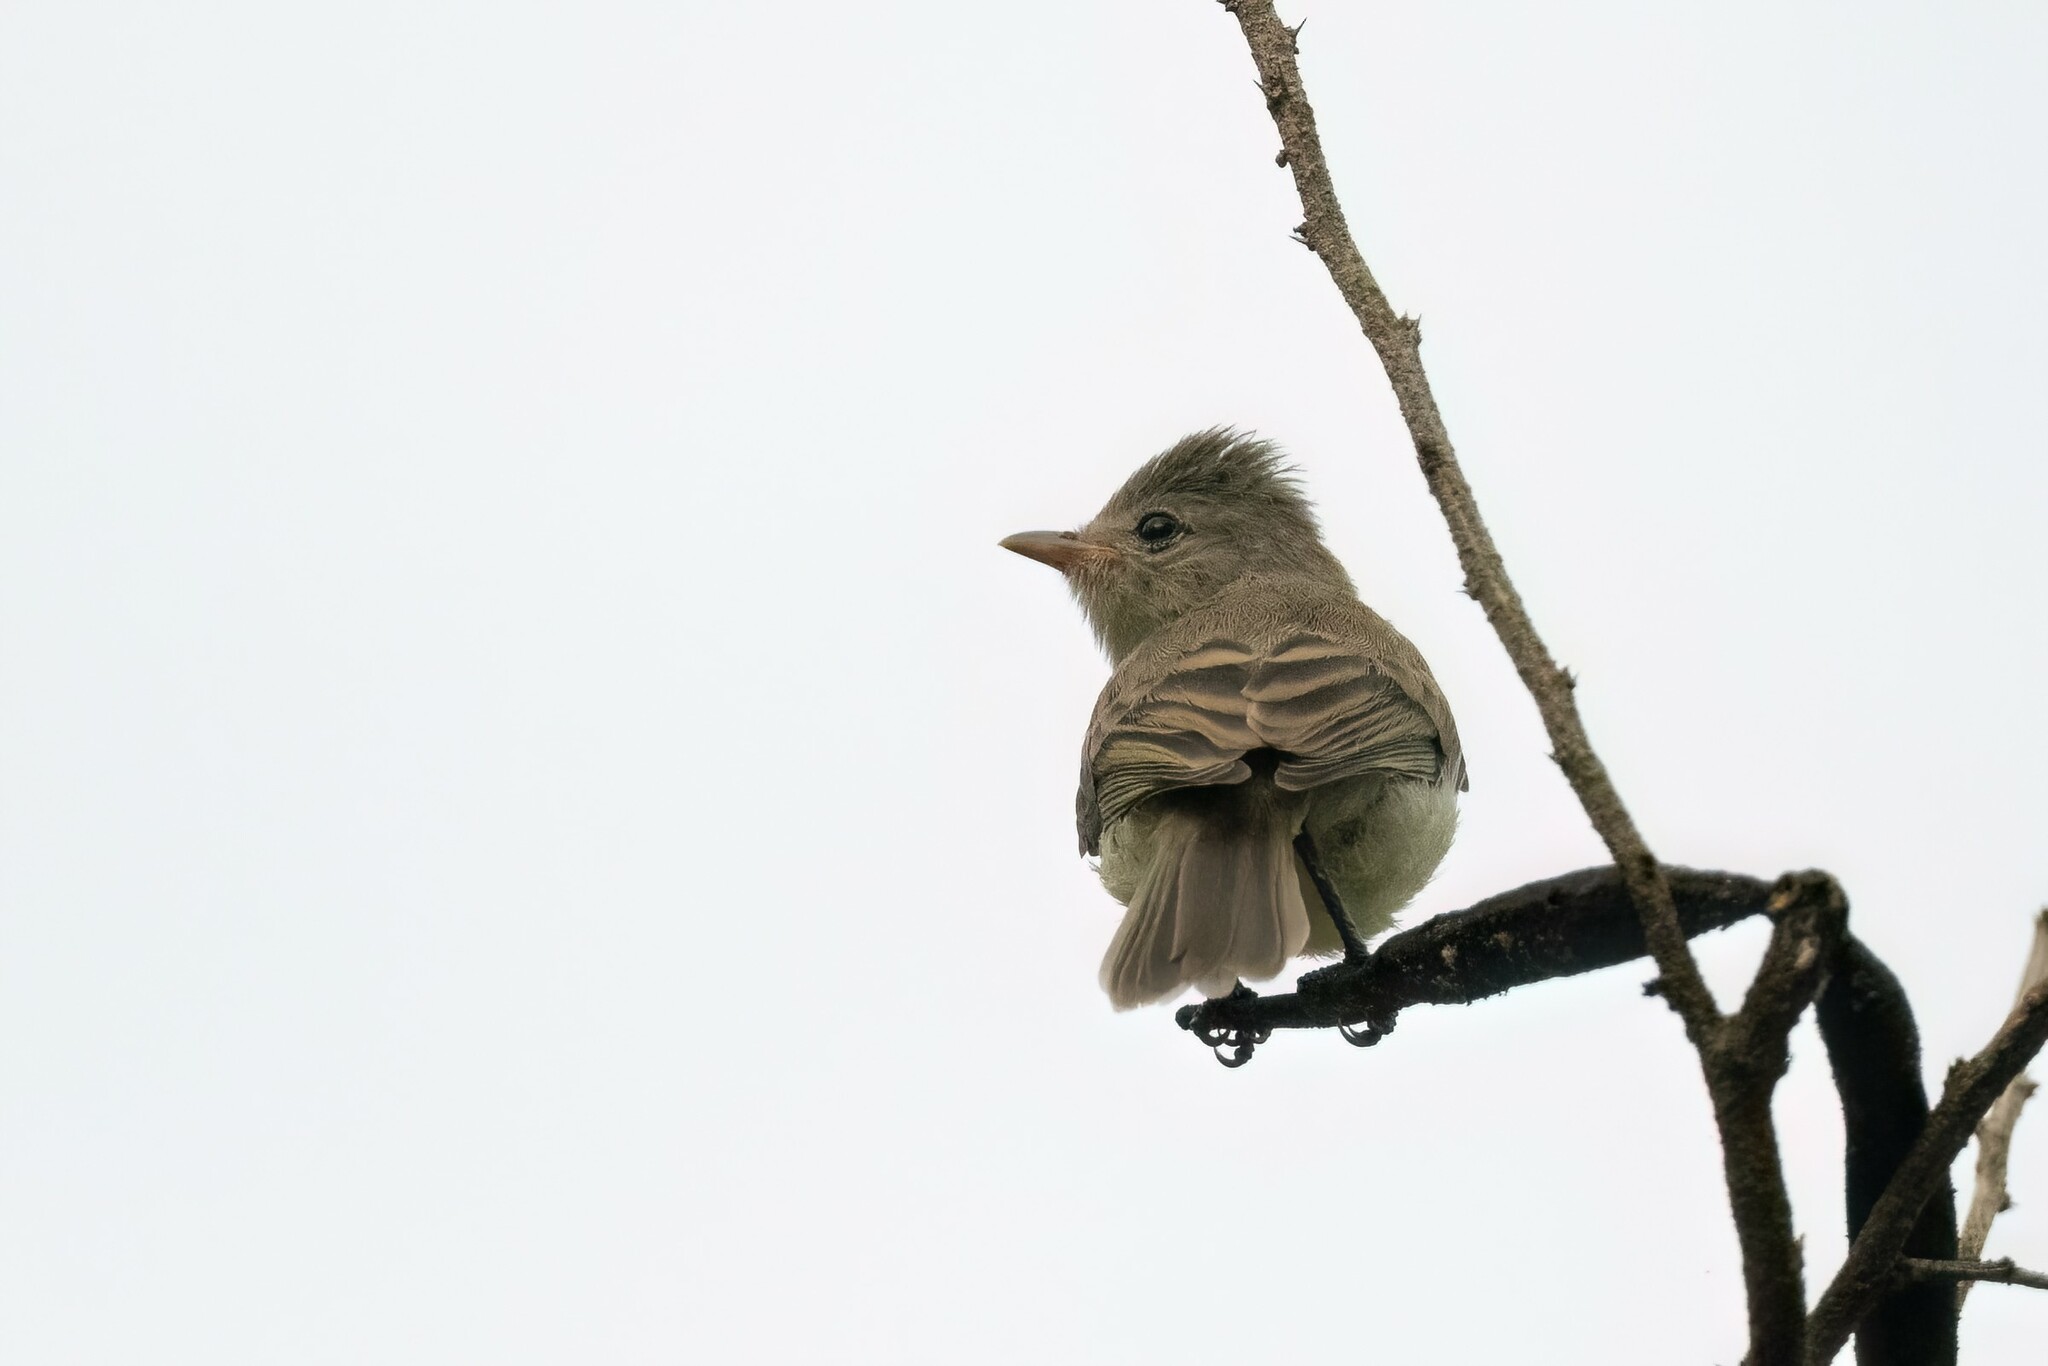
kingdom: Animalia
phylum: Chordata
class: Aves
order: Passeriformes
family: Tyrannidae
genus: Camptostoma
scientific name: Camptostoma imberbe
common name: Northern beardless-tyrannulet
